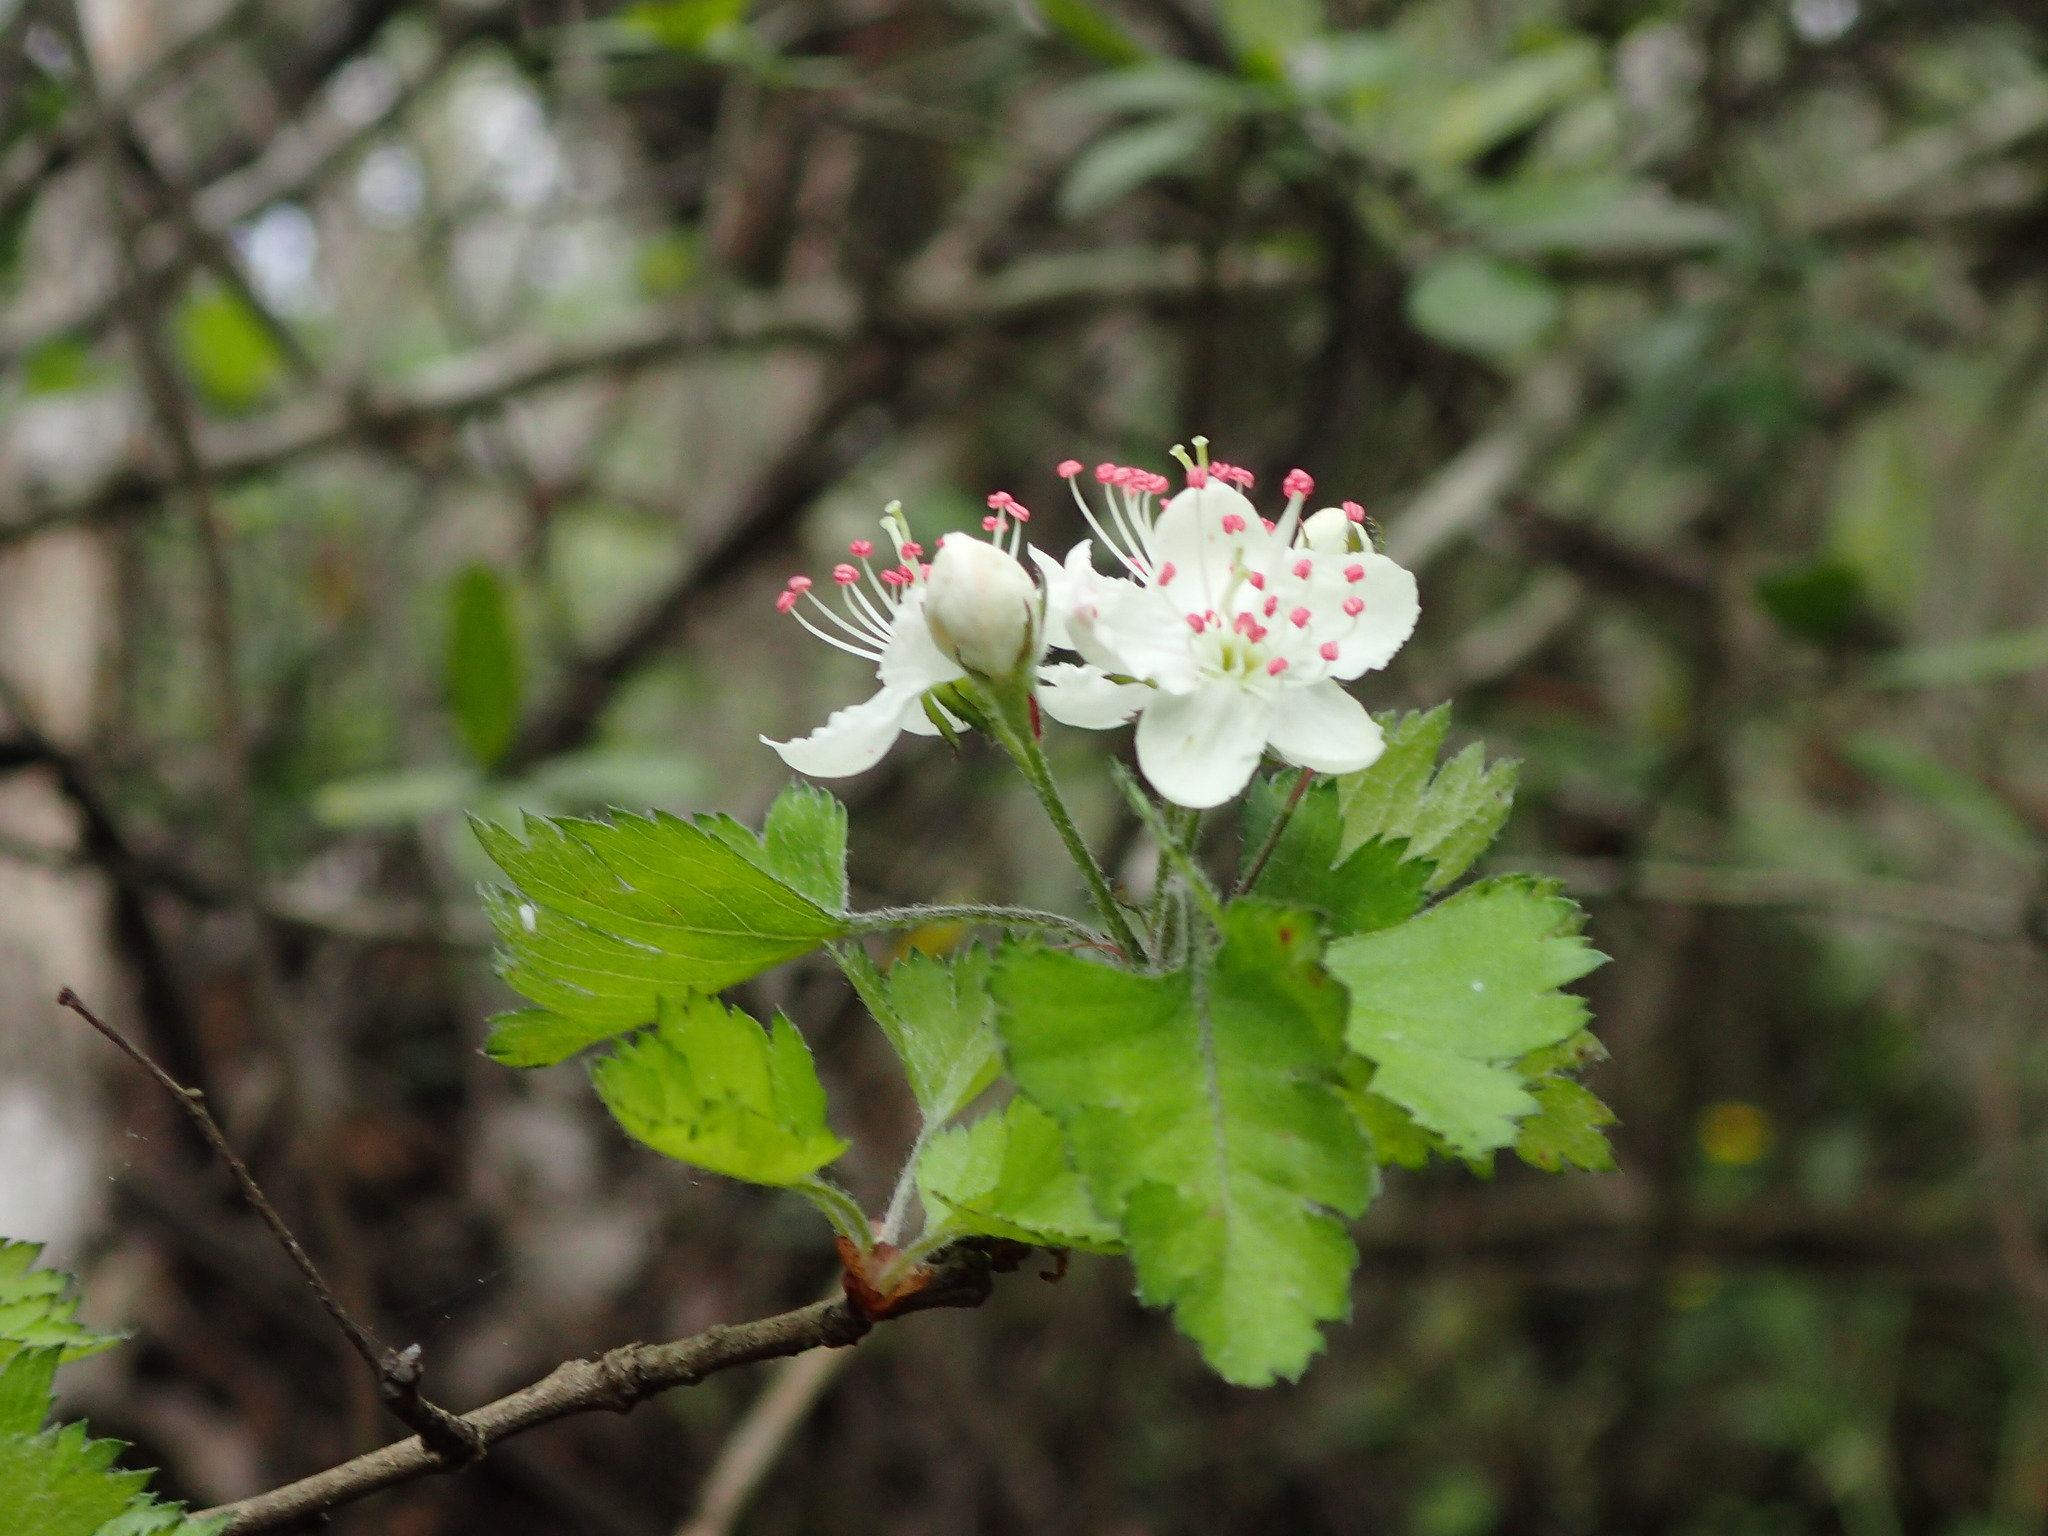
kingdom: Plantae
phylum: Tracheophyta
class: Magnoliopsida
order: Rosales
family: Rosaceae
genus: Crataegus
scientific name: Crataegus marshallii
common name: Parsley-hawthorn
